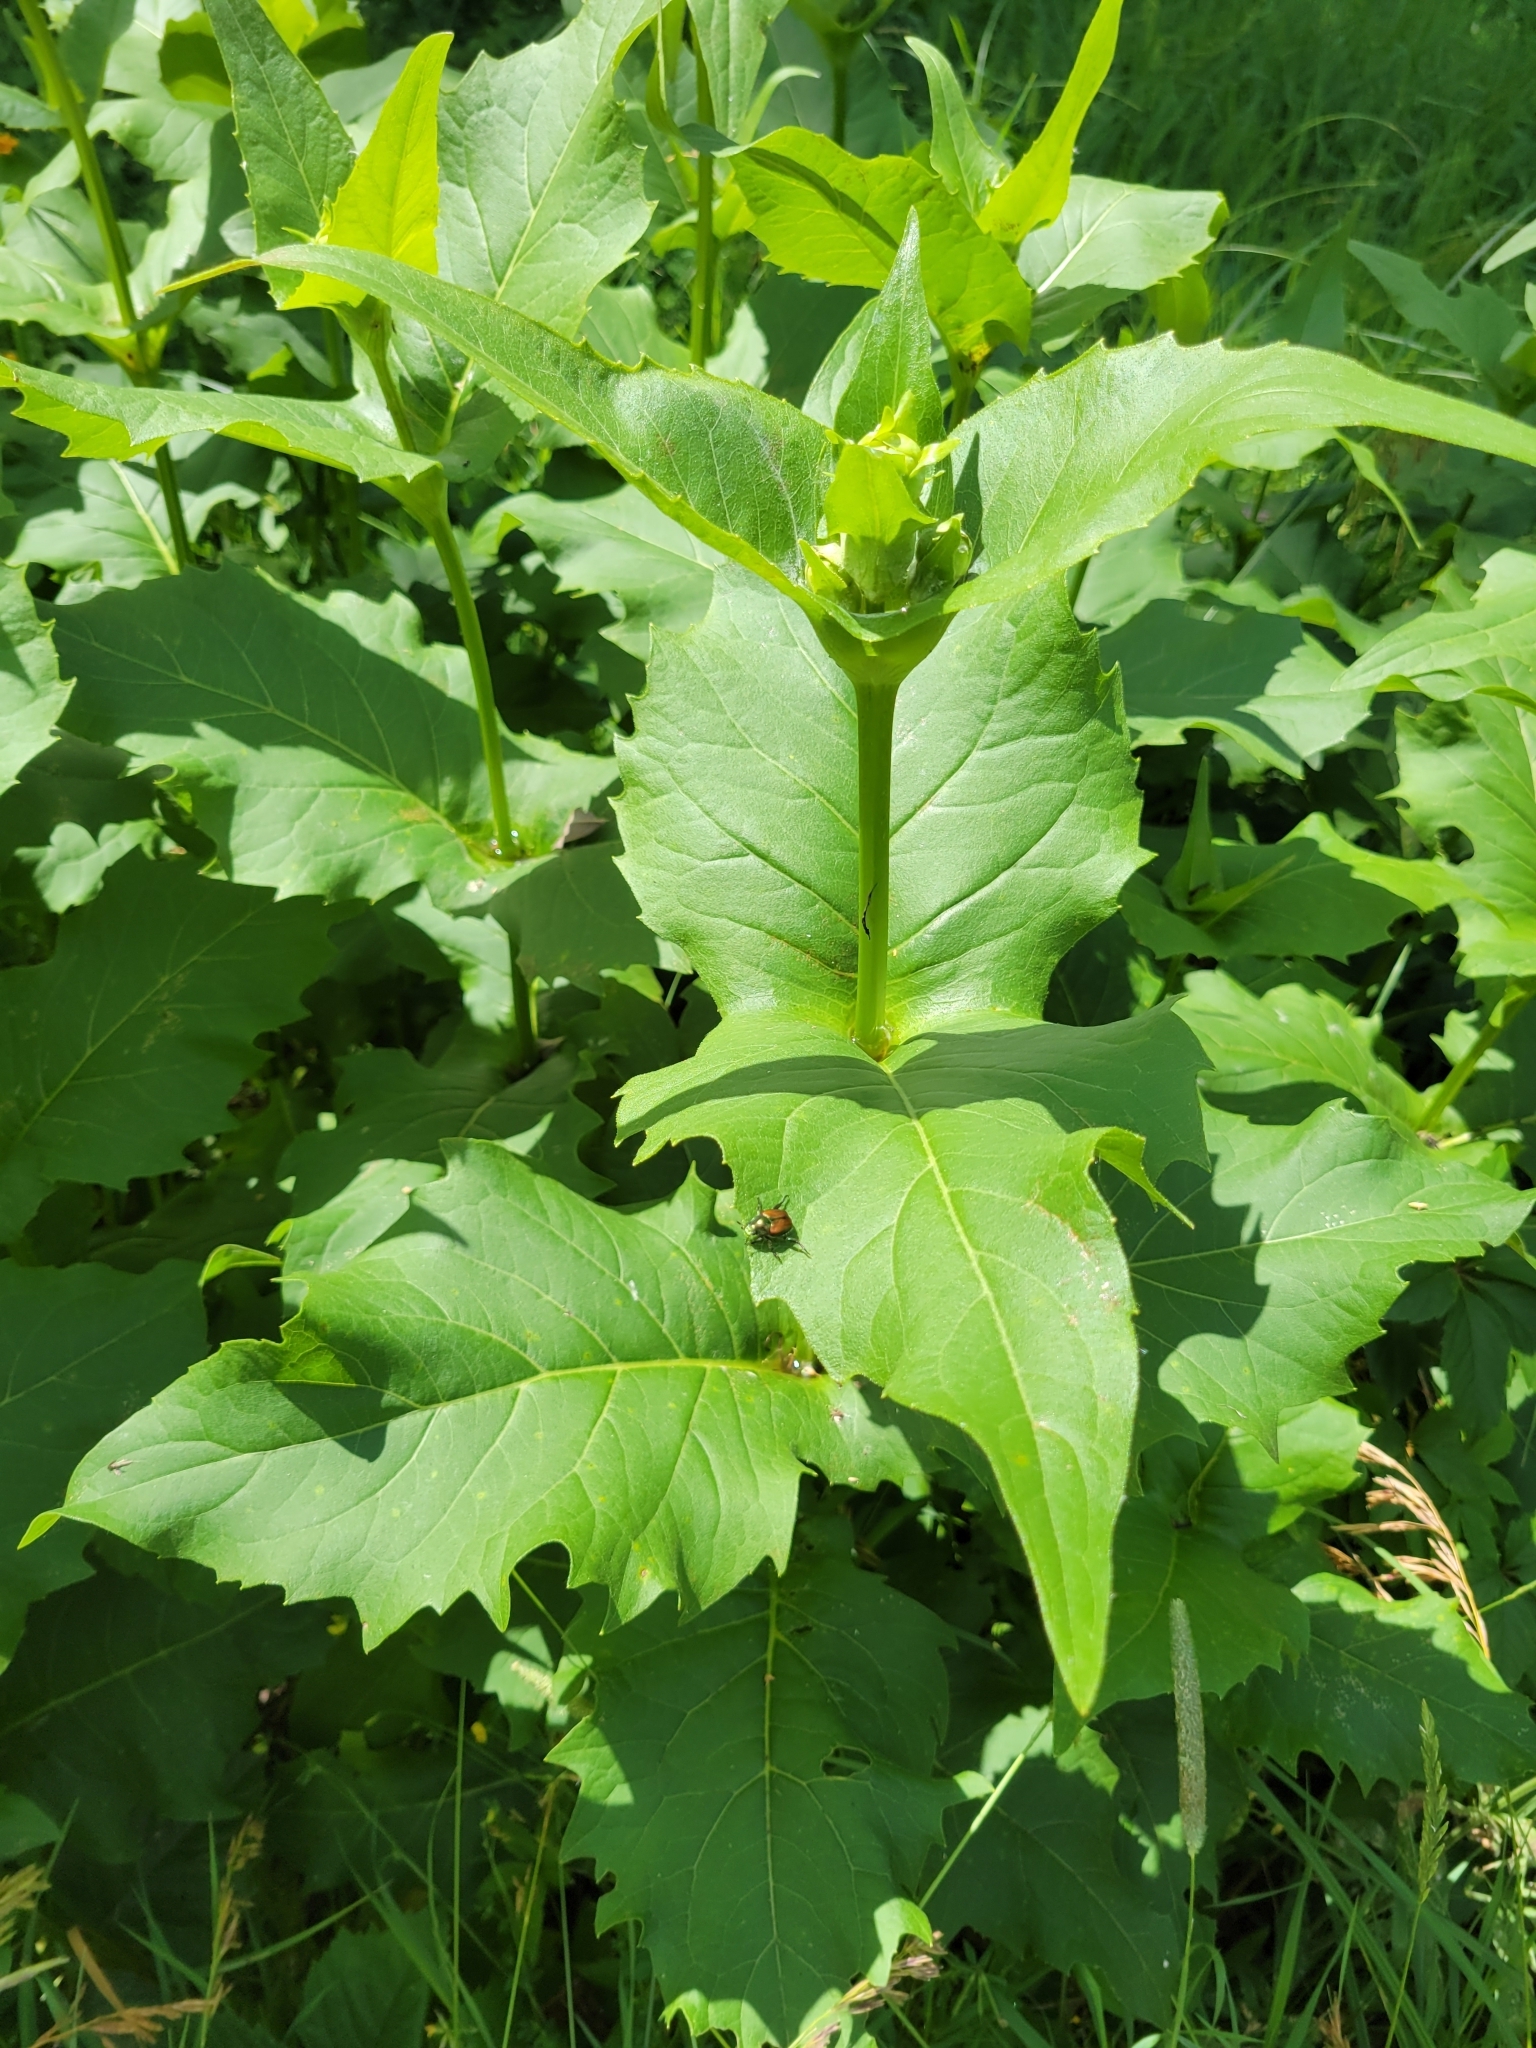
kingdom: Plantae
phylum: Tracheophyta
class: Magnoliopsida
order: Asterales
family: Asteraceae
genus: Silphium
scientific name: Silphium perfoliatum
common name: Cup-plant
